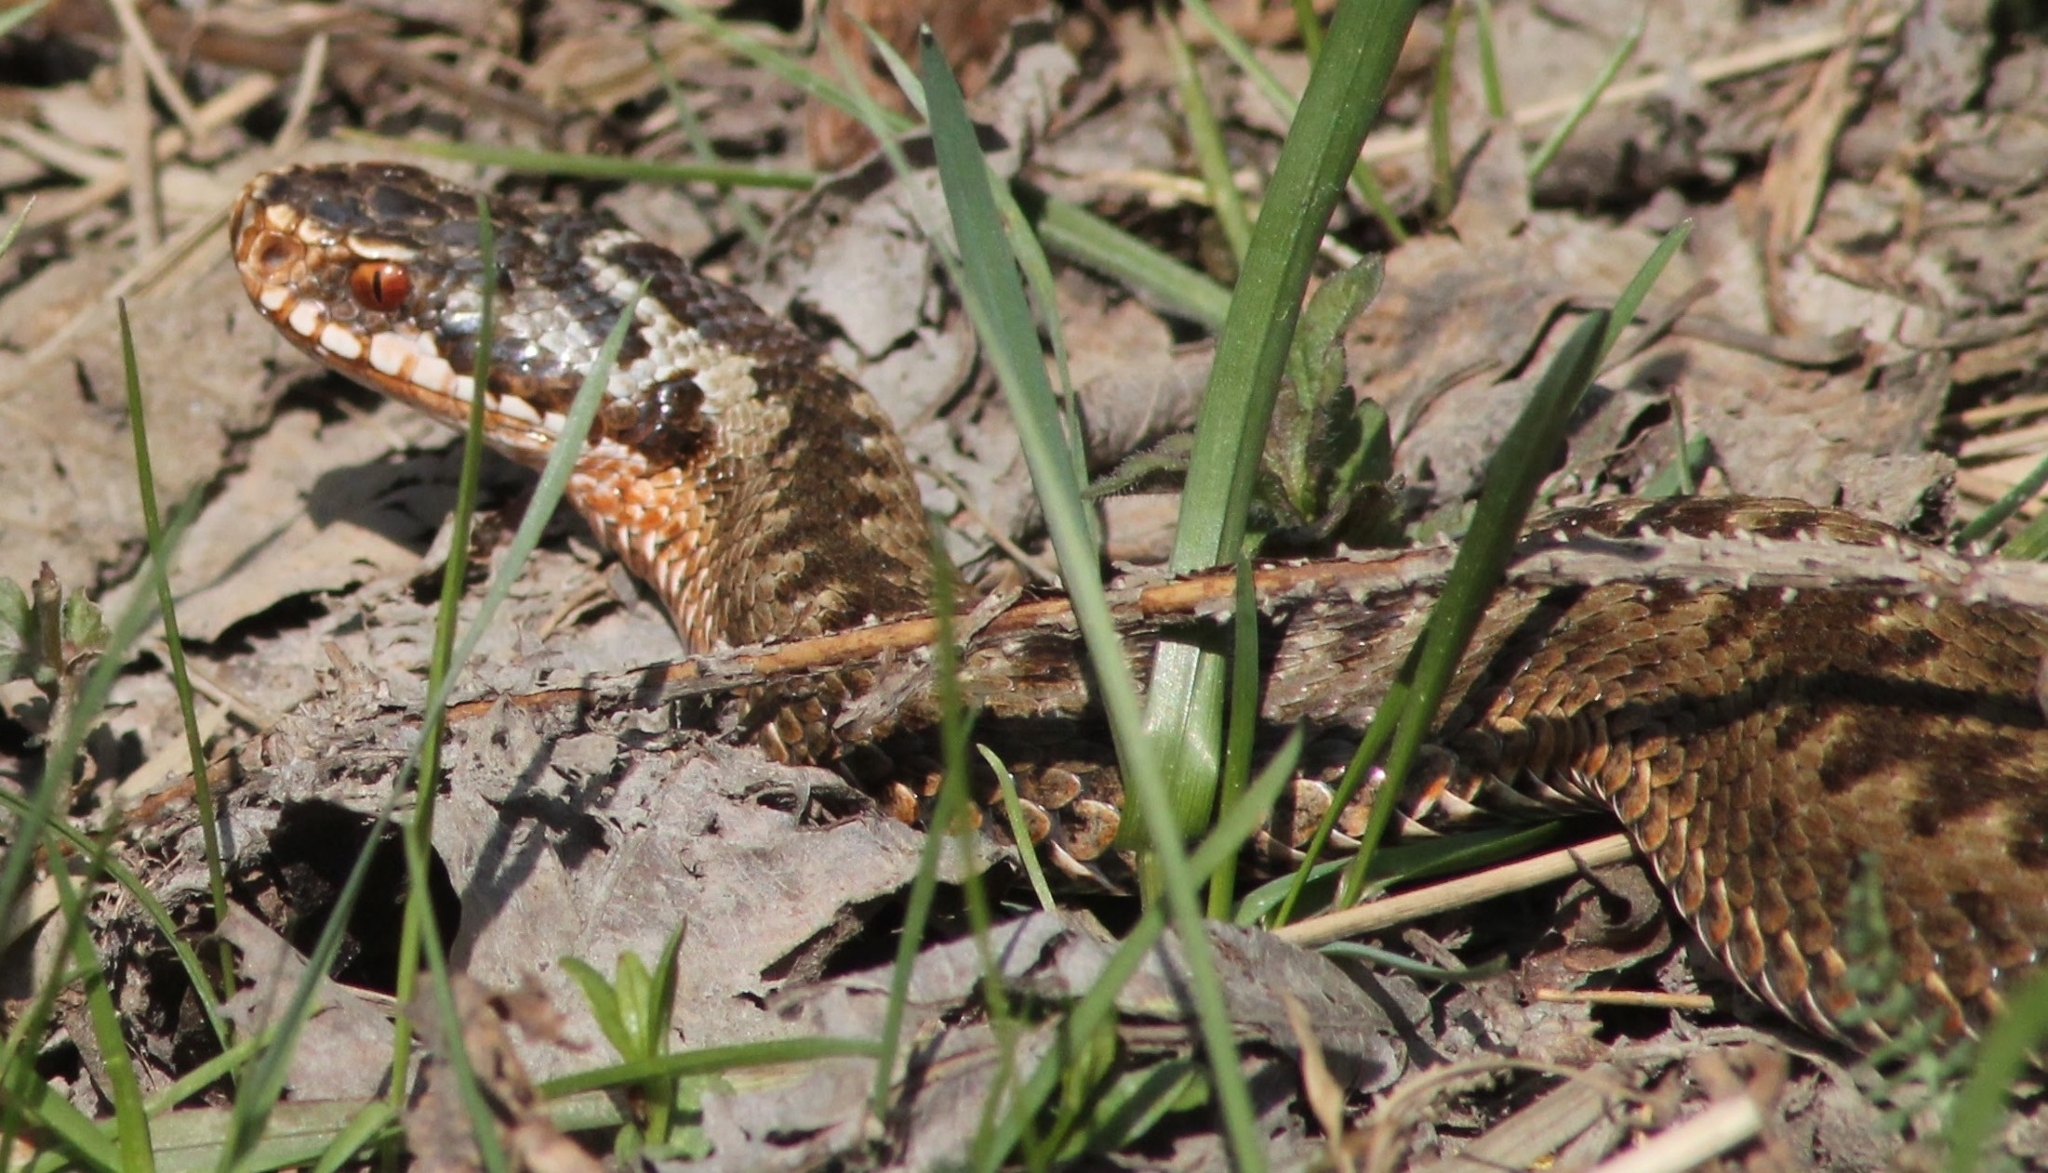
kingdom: Animalia
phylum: Chordata
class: Squamata
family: Viperidae
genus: Vipera
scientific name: Vipera berus
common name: Adder
